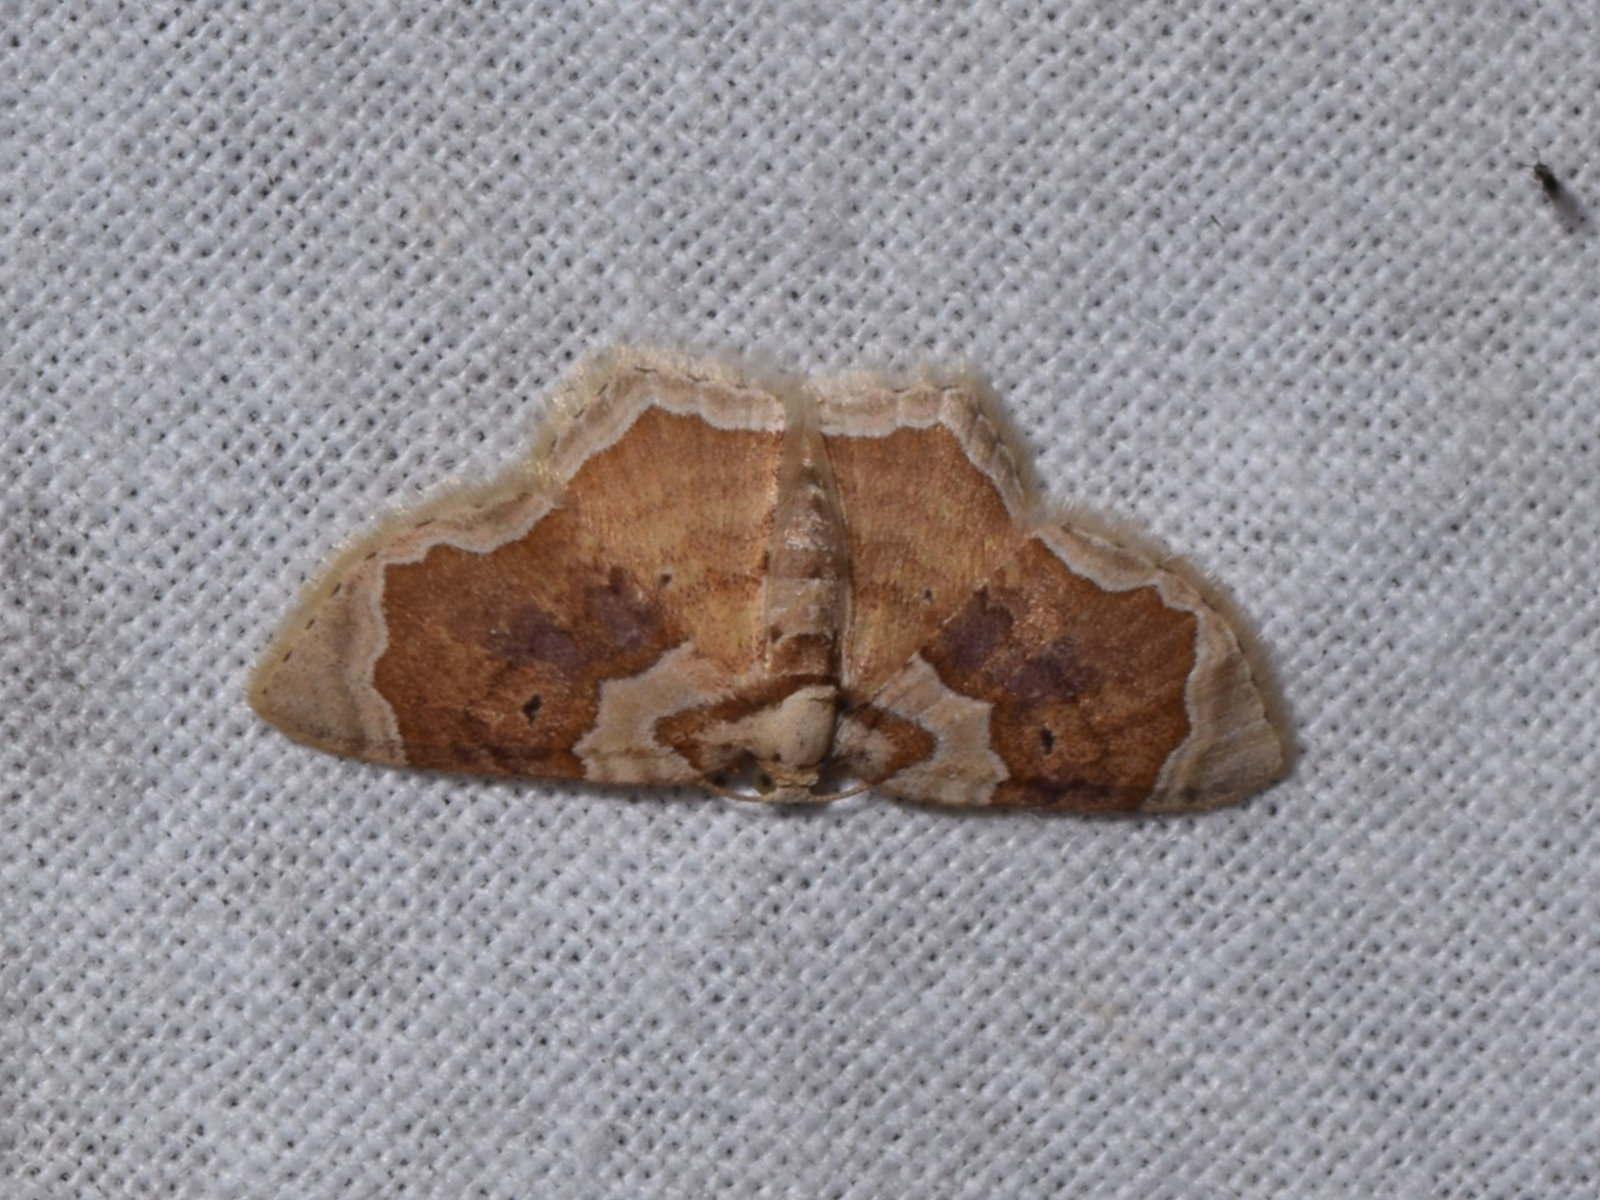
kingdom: Animalia
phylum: Arthropoda
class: Insecta
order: Lepidoptera
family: Geometridae
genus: Palpoctenidia
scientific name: Palpoctenidia phoenicosoma
